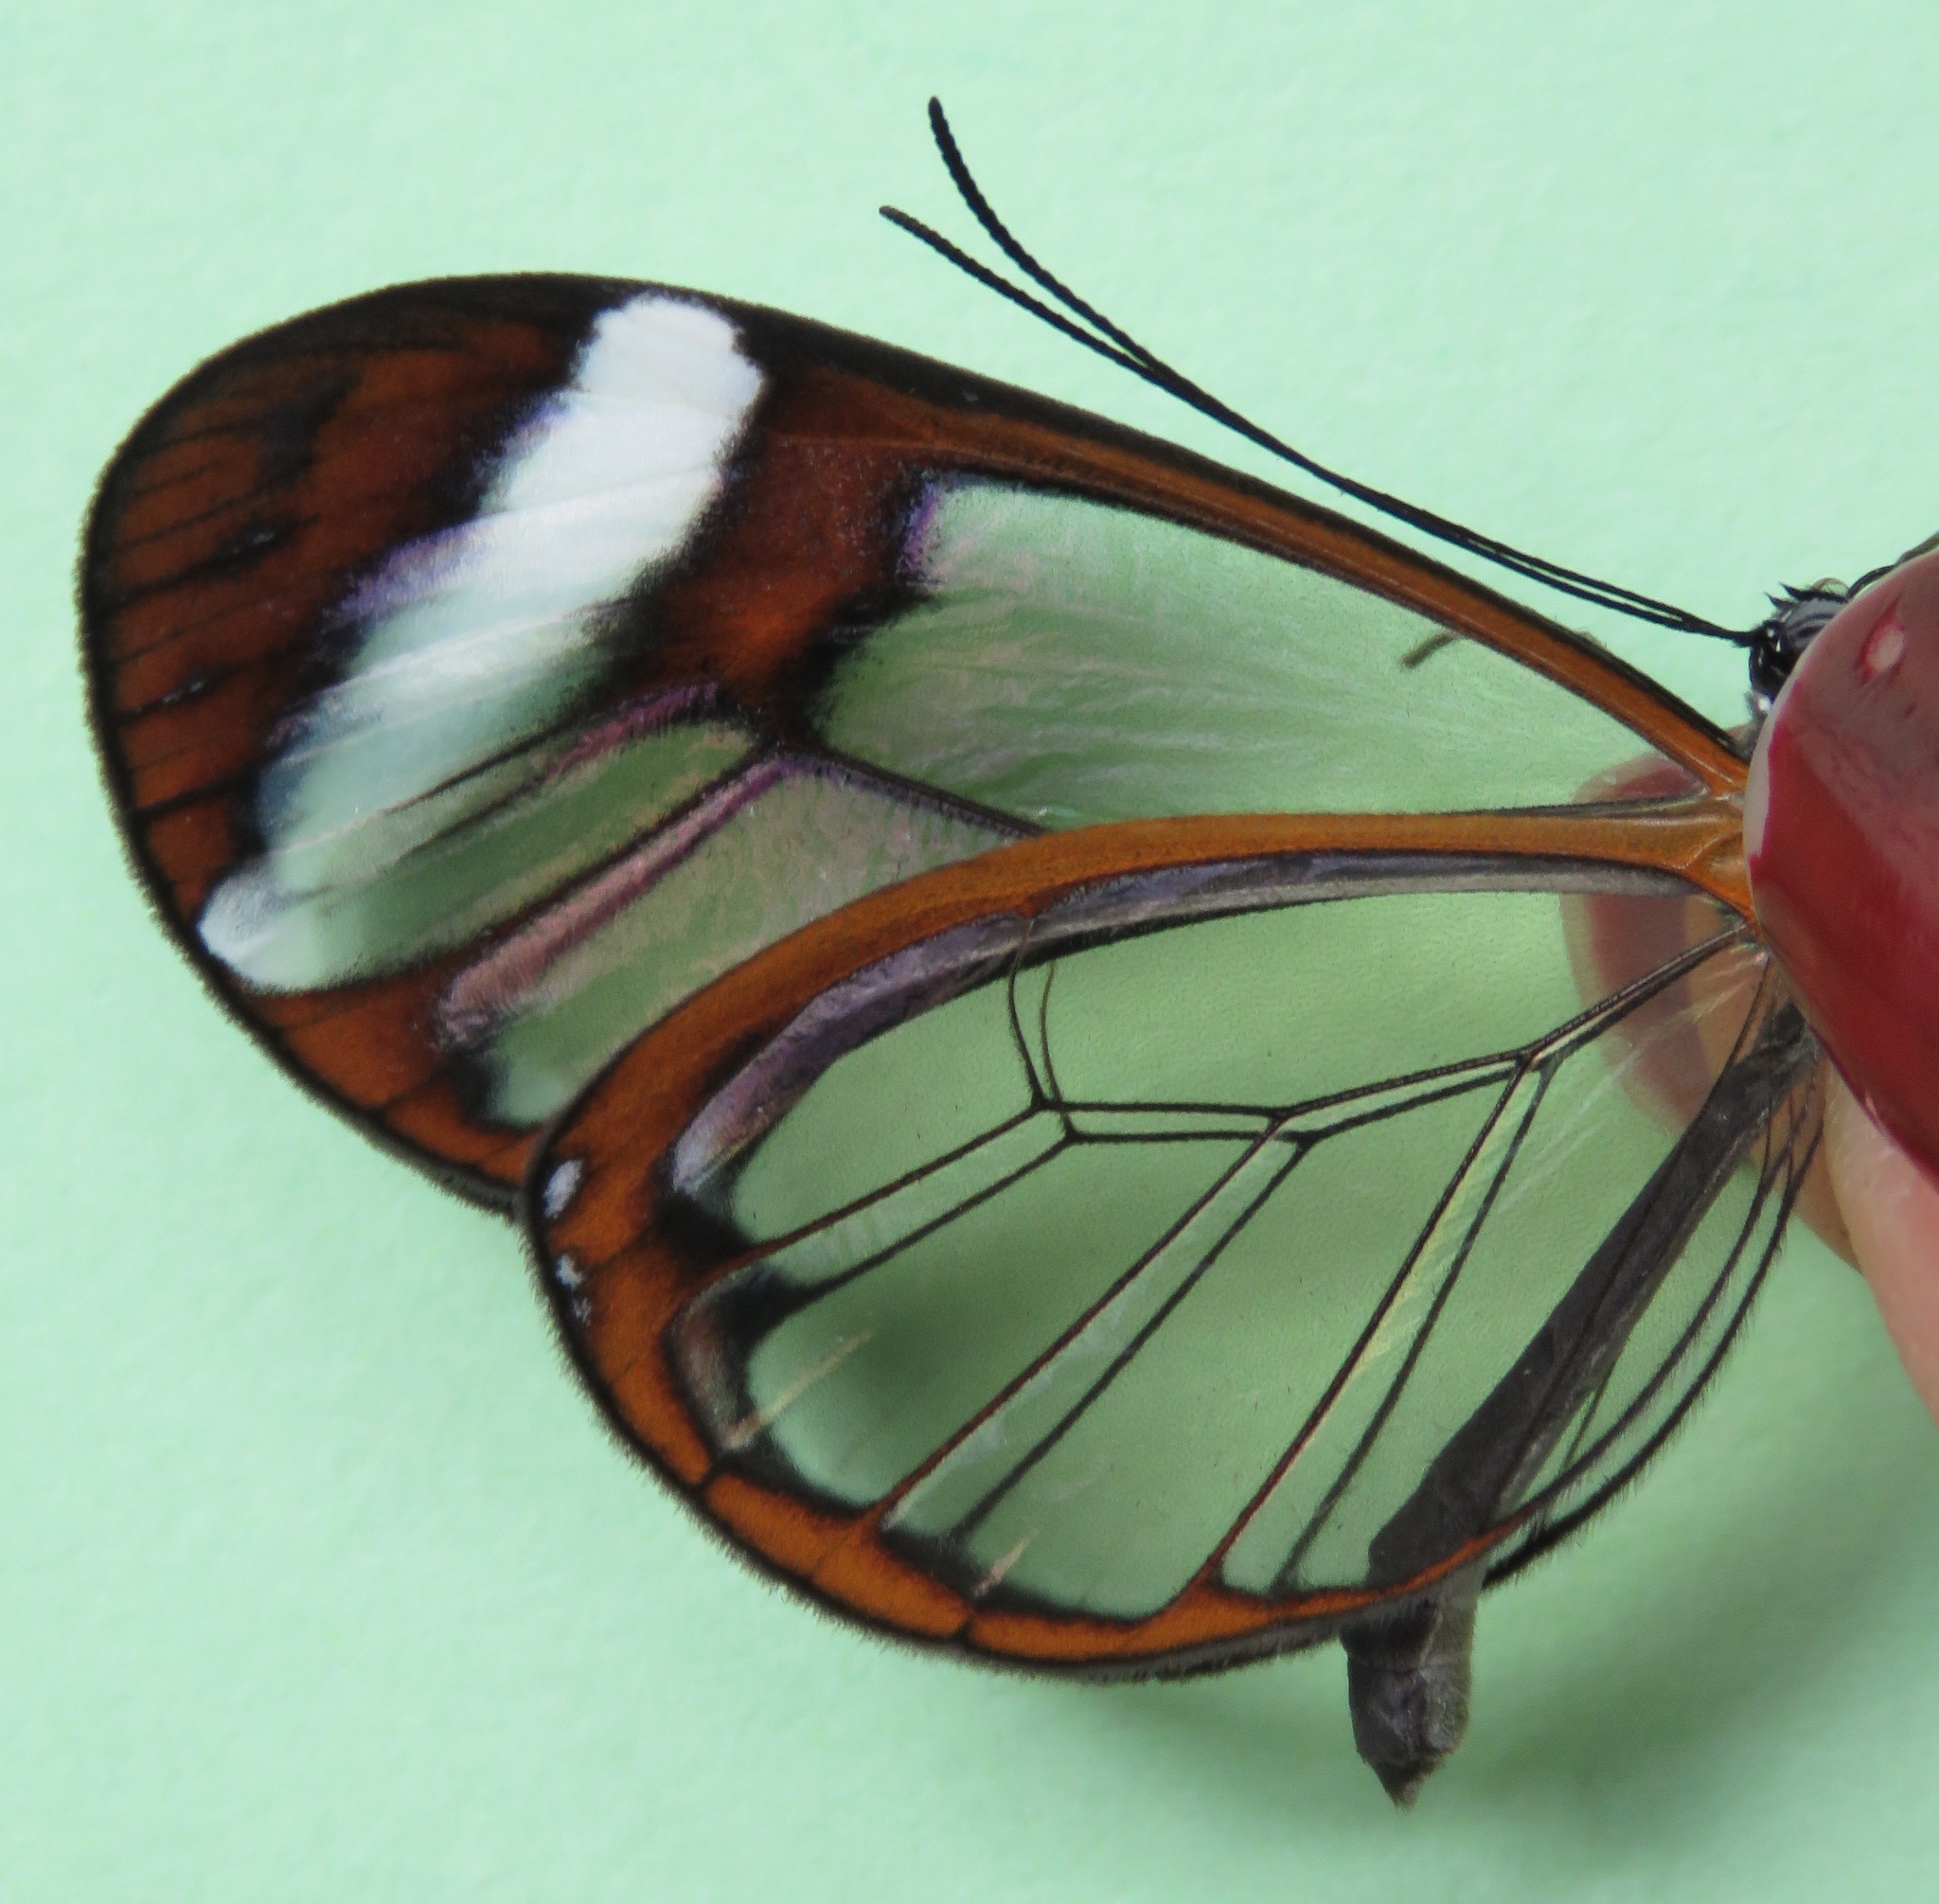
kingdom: Animalia
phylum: Arthropoda
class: Insecta
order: Lepidoptera
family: Nymphalidae
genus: Greta
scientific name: Greta morgane
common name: Thick-tipped greta
